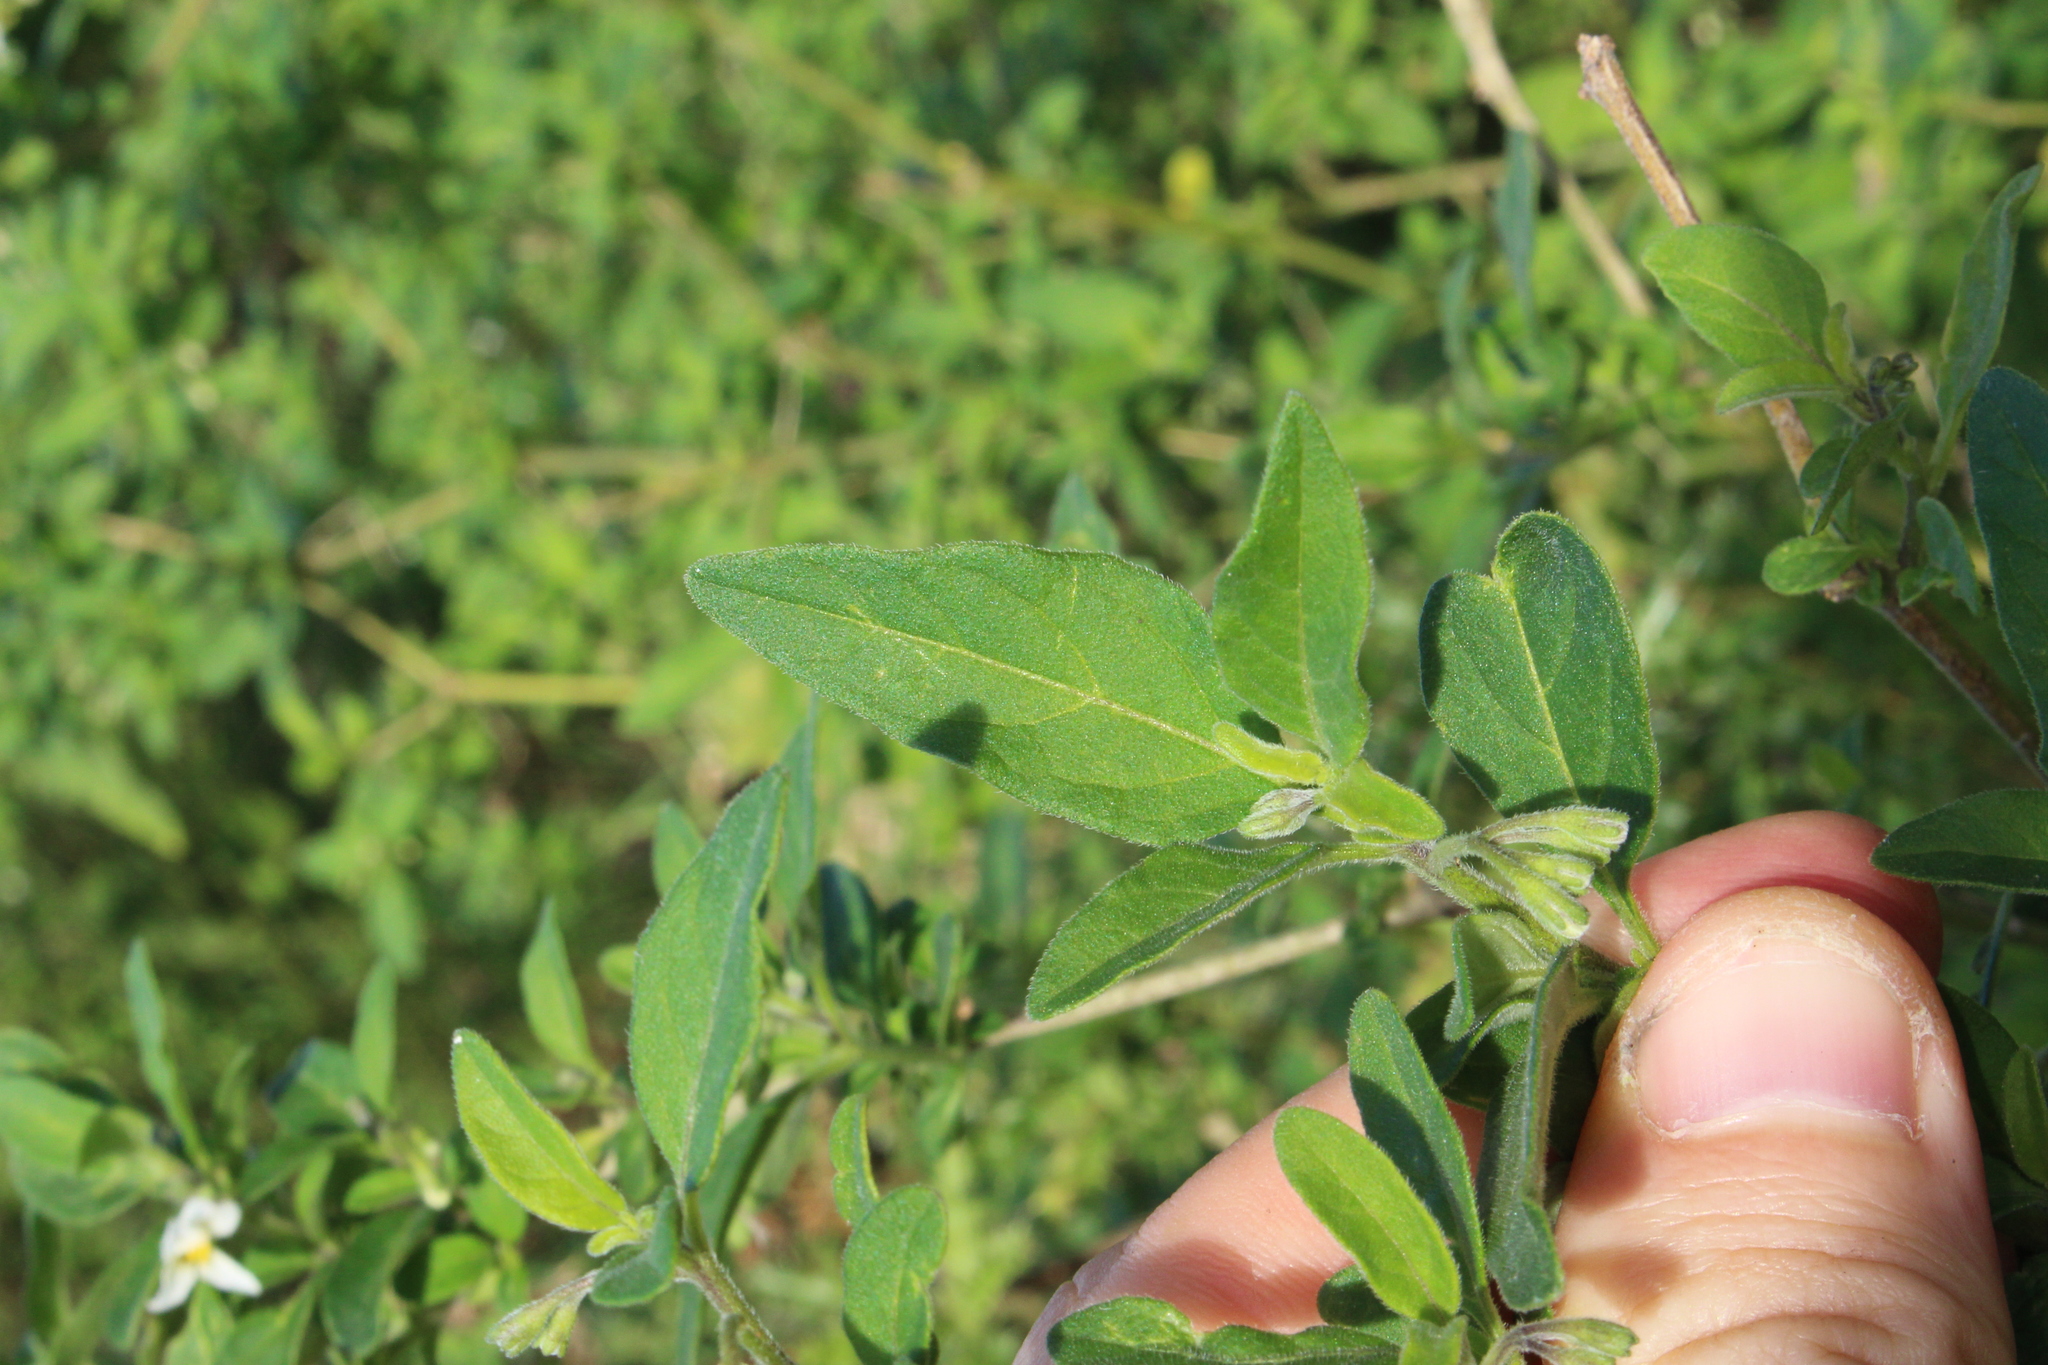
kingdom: Plantae
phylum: Tracheophyta
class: Magnoliopsida
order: Solanales
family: Solanaceae
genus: Solanum
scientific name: Solanum chenopodioides
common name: Tall nightshade
